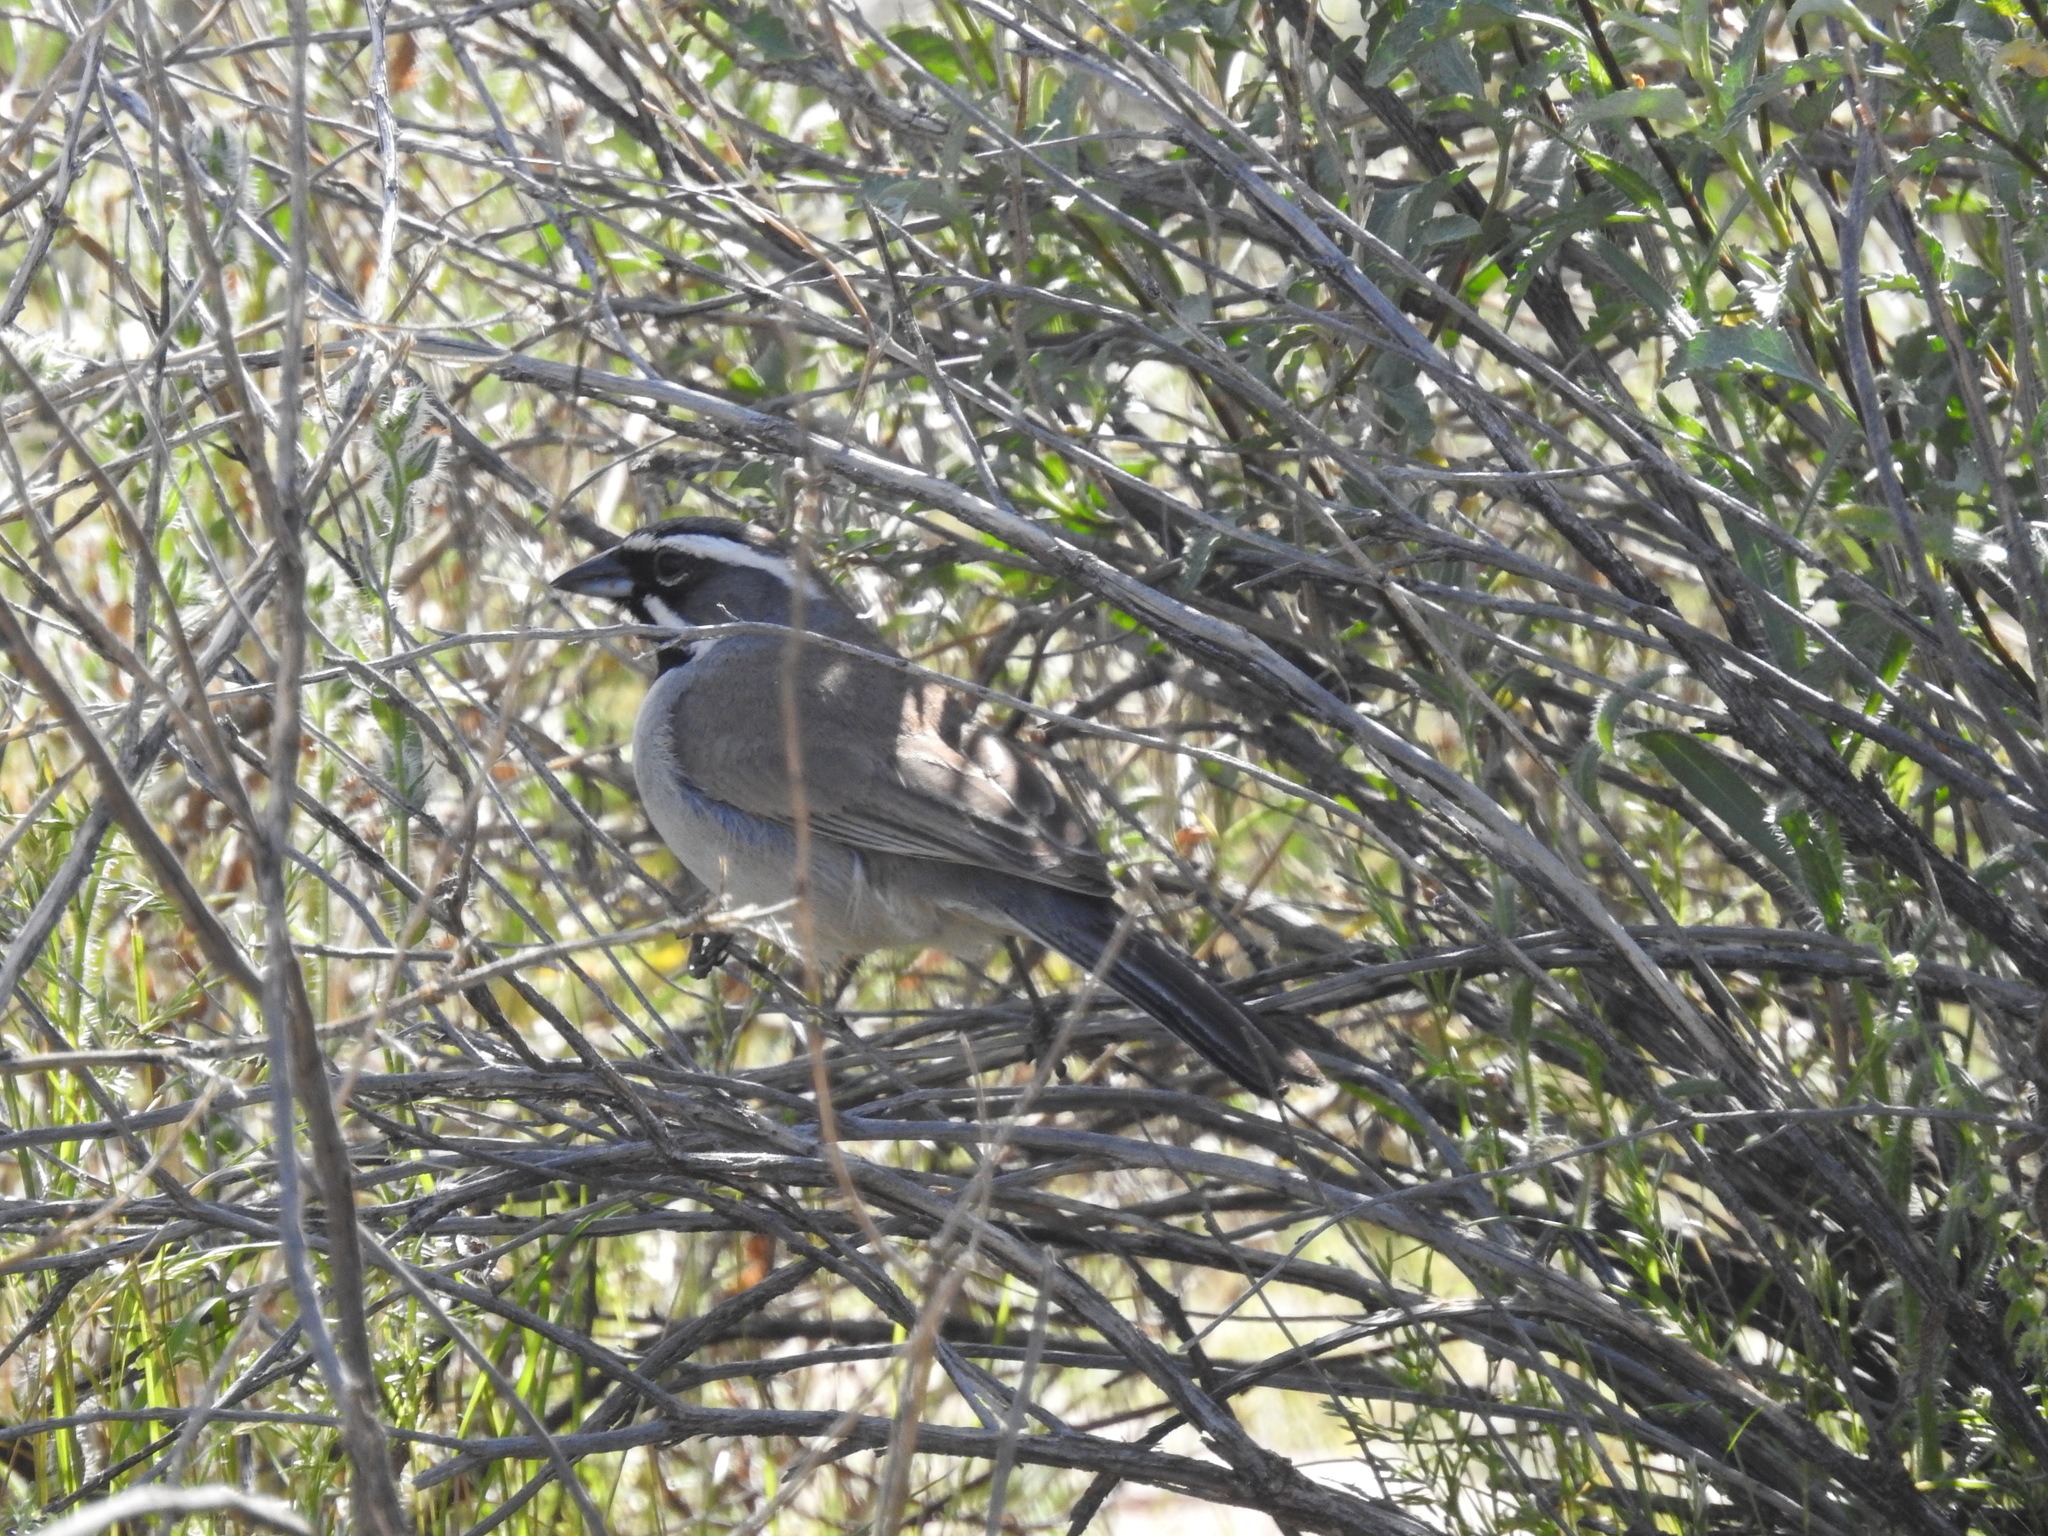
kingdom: Animalia
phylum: Chordata
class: Aves
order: Passeriformes
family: Passerellidae
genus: Amphispiza
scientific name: Amphispiza bilineata
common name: Black-throated sparrow
